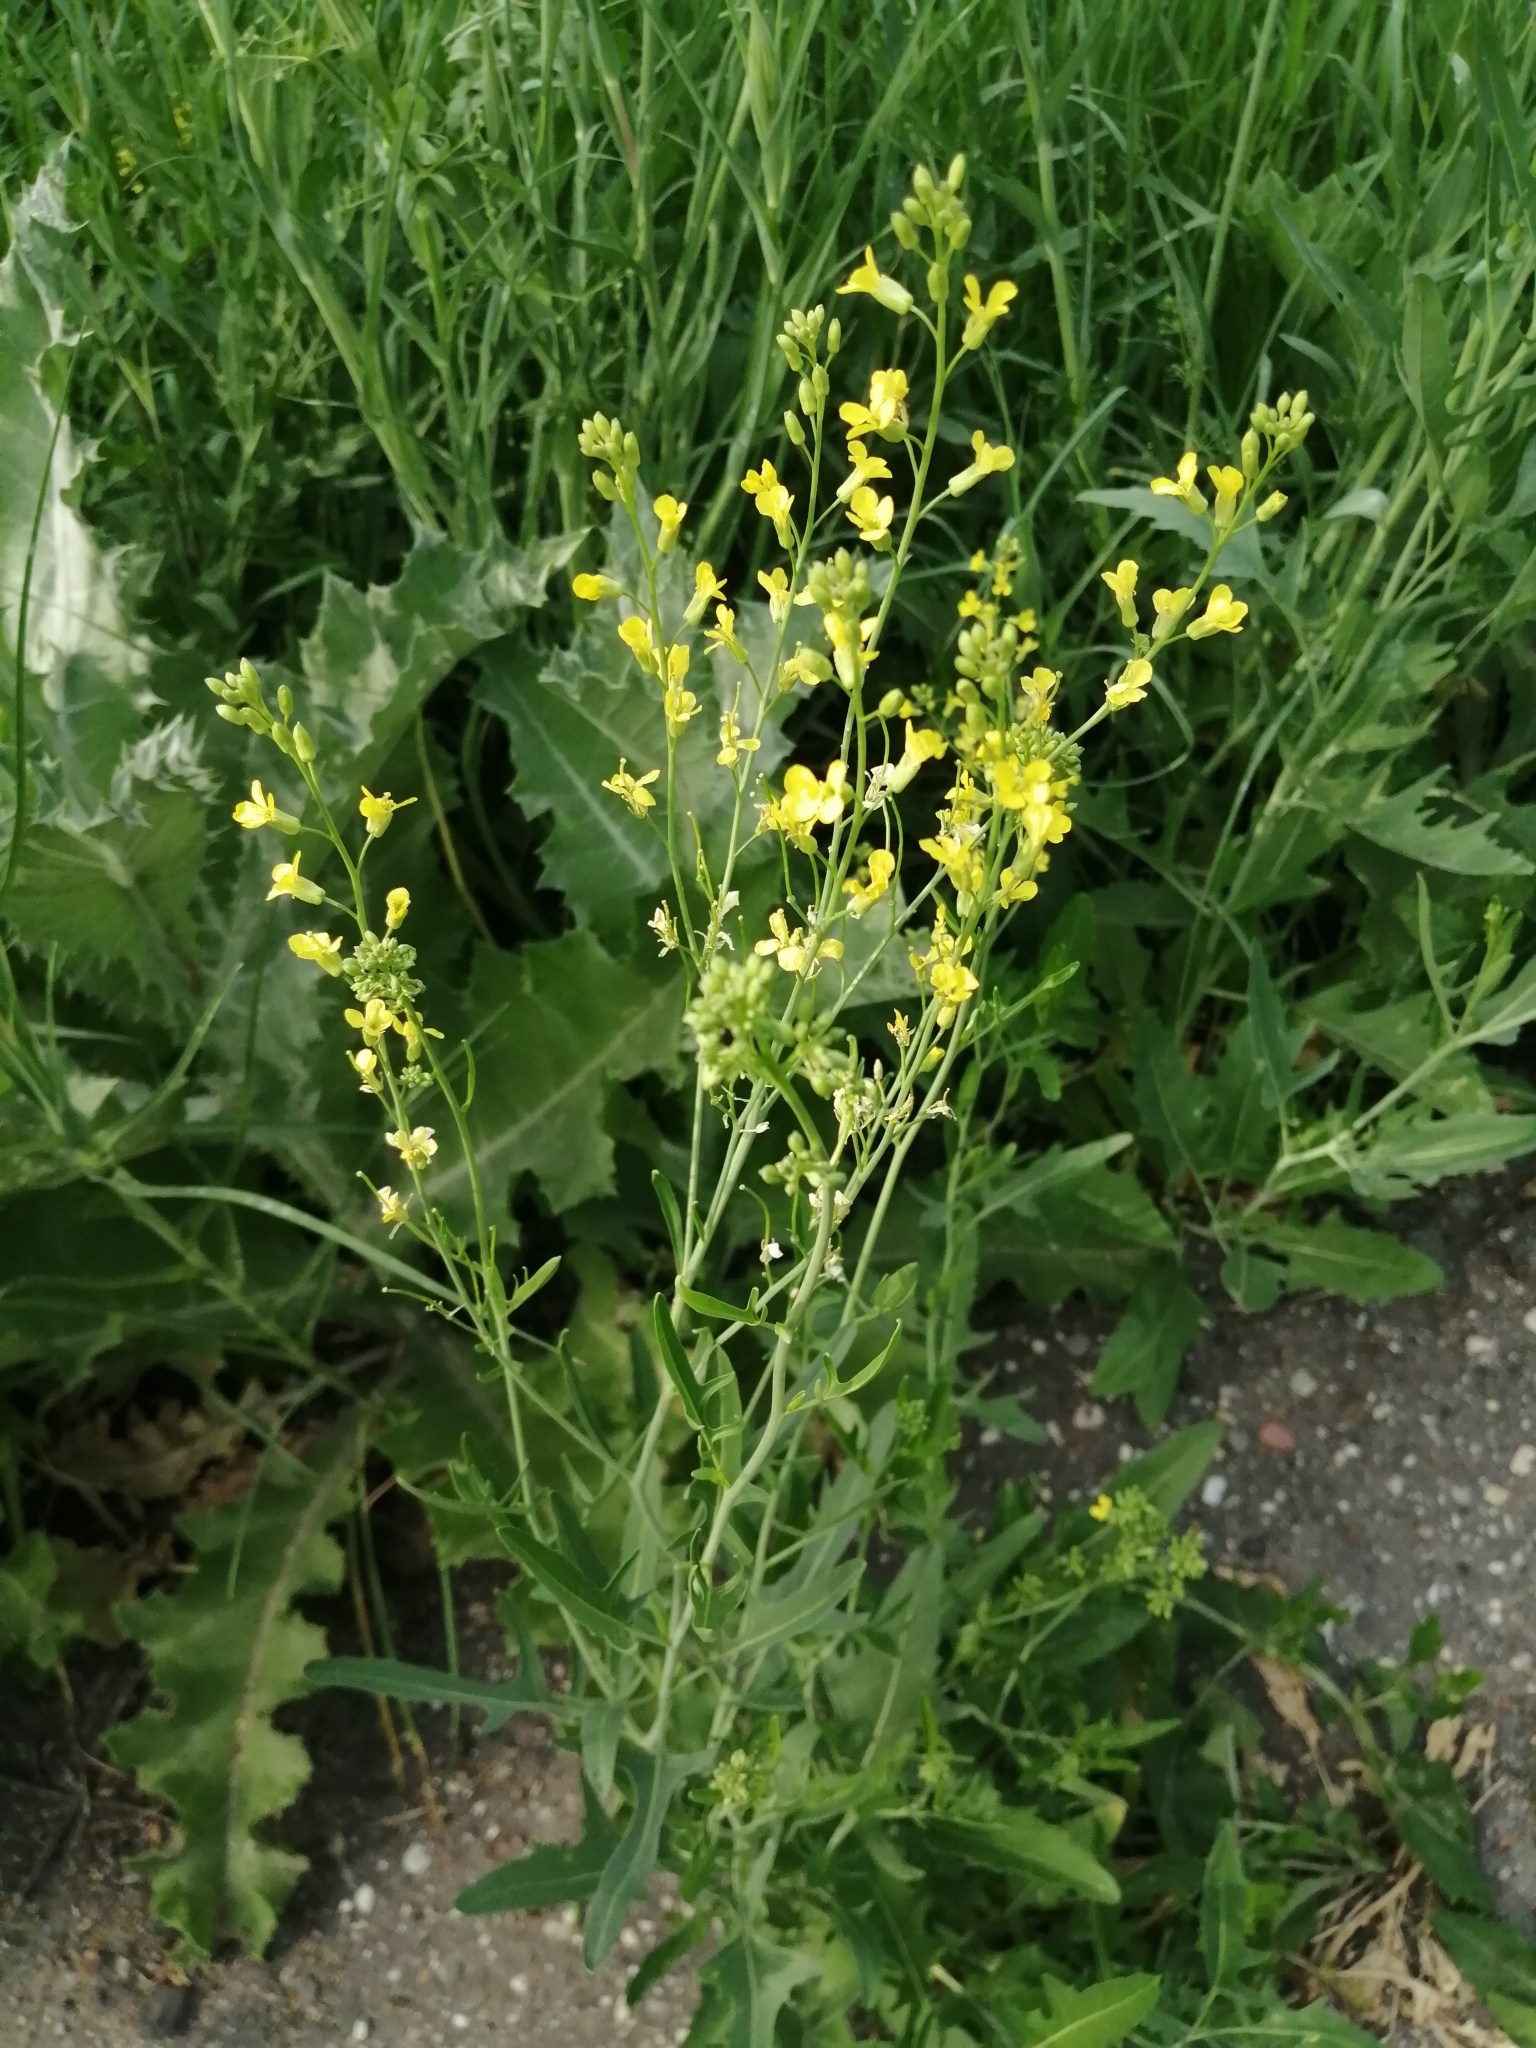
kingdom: Plantae
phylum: Tracheophyta
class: Magnoliopsida
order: Brassicales
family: Brassicaceae
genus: Sisymbrium
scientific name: Sisymbrium volgense
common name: Russian mustard
